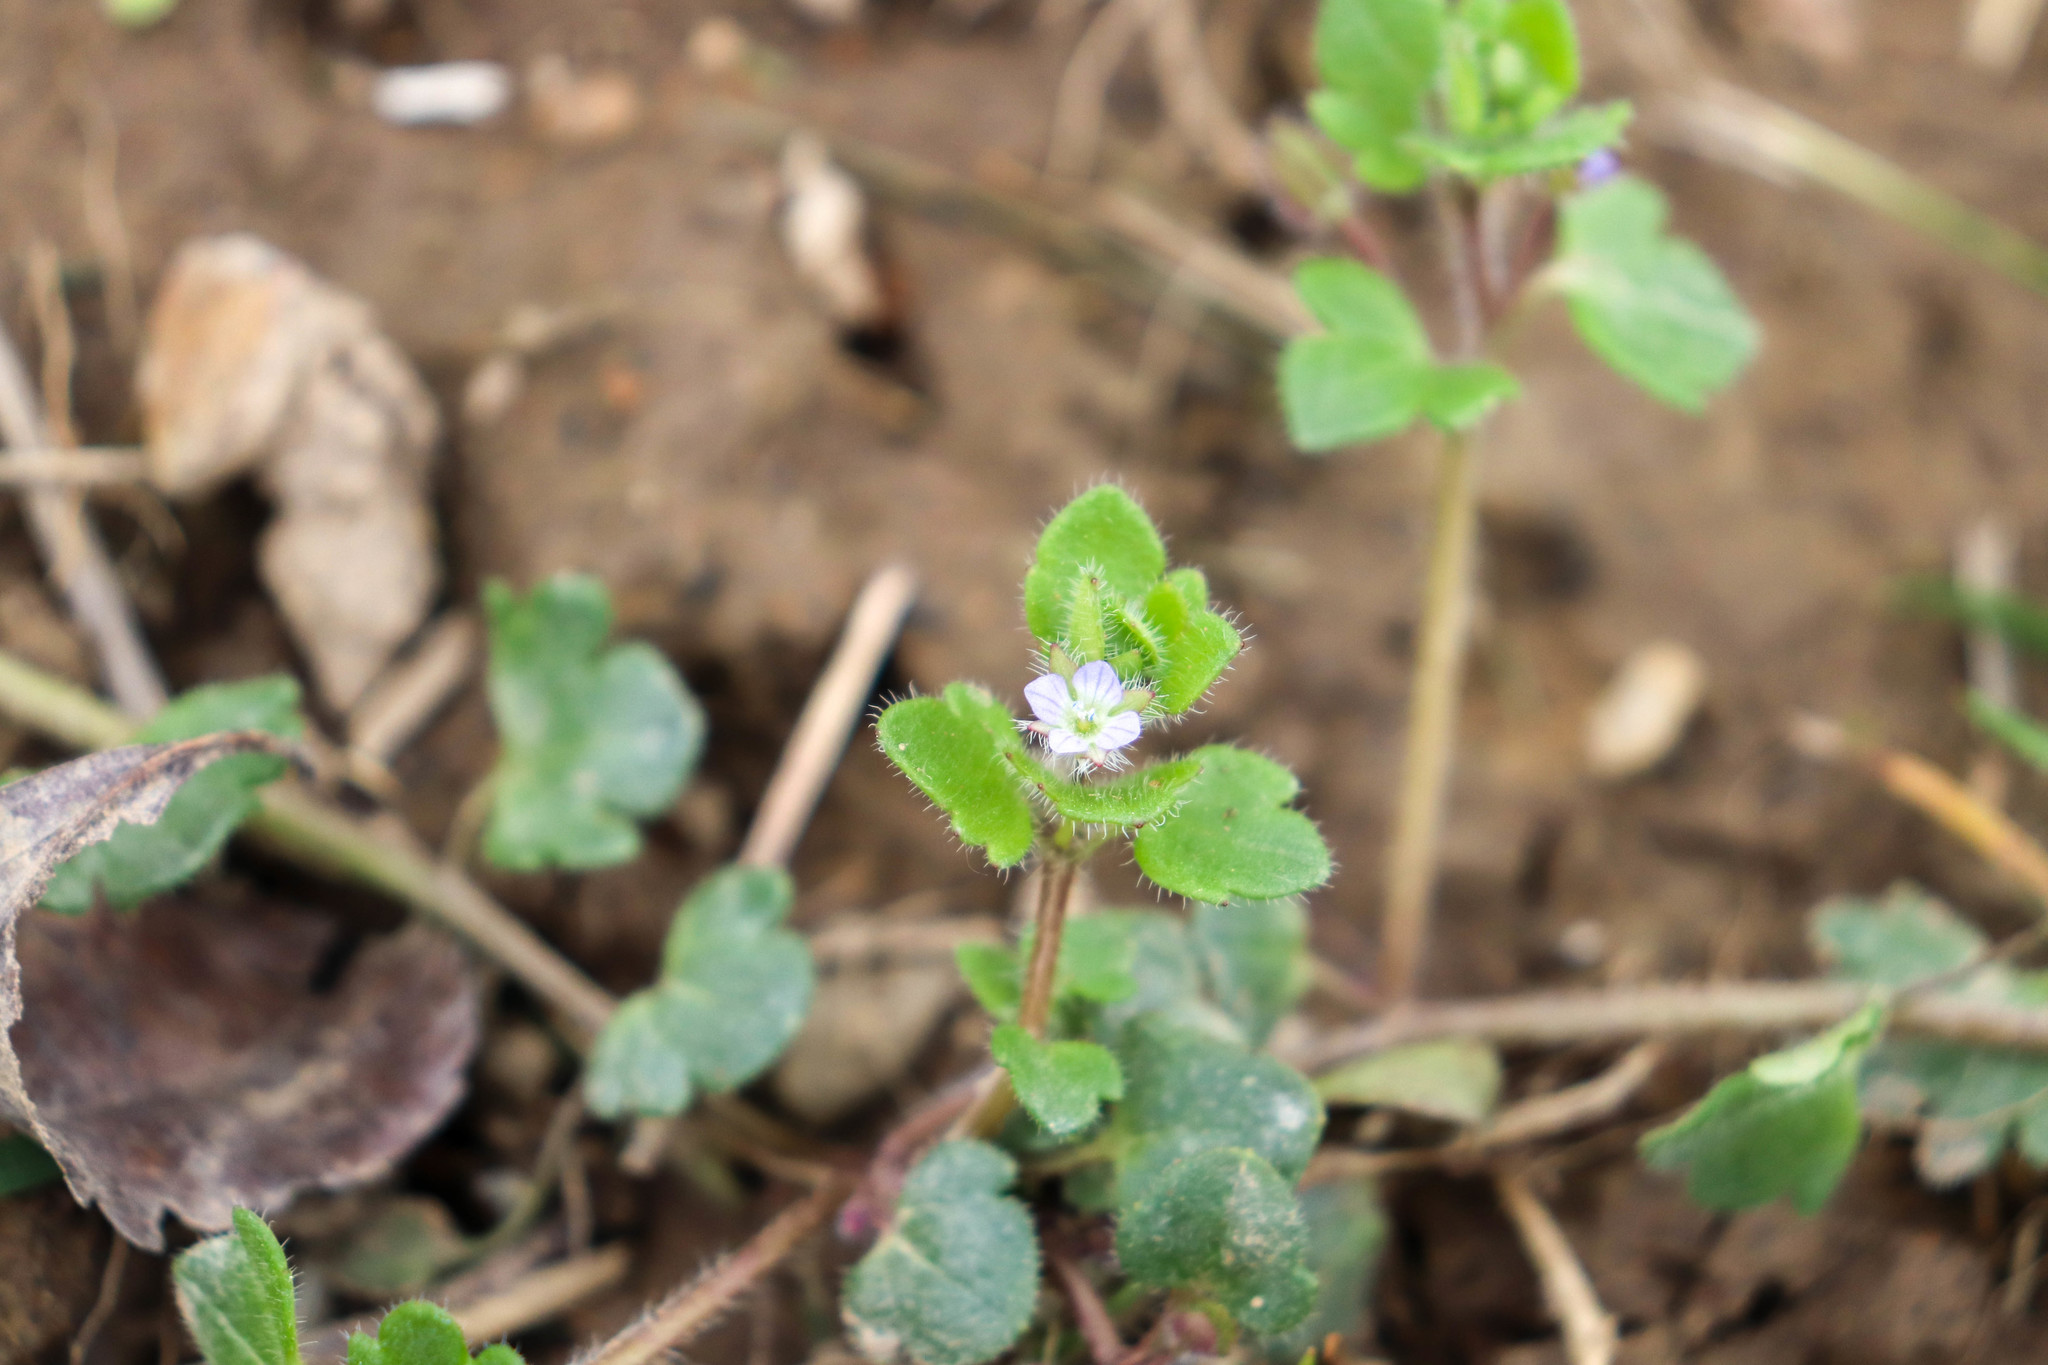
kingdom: Plantae
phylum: Tracheophyta
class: Magnoliopsida
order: Lamiales
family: Plantaginaceae
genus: Veronica
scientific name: Veronica hederifolia
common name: Ivy-leaved speedwell
